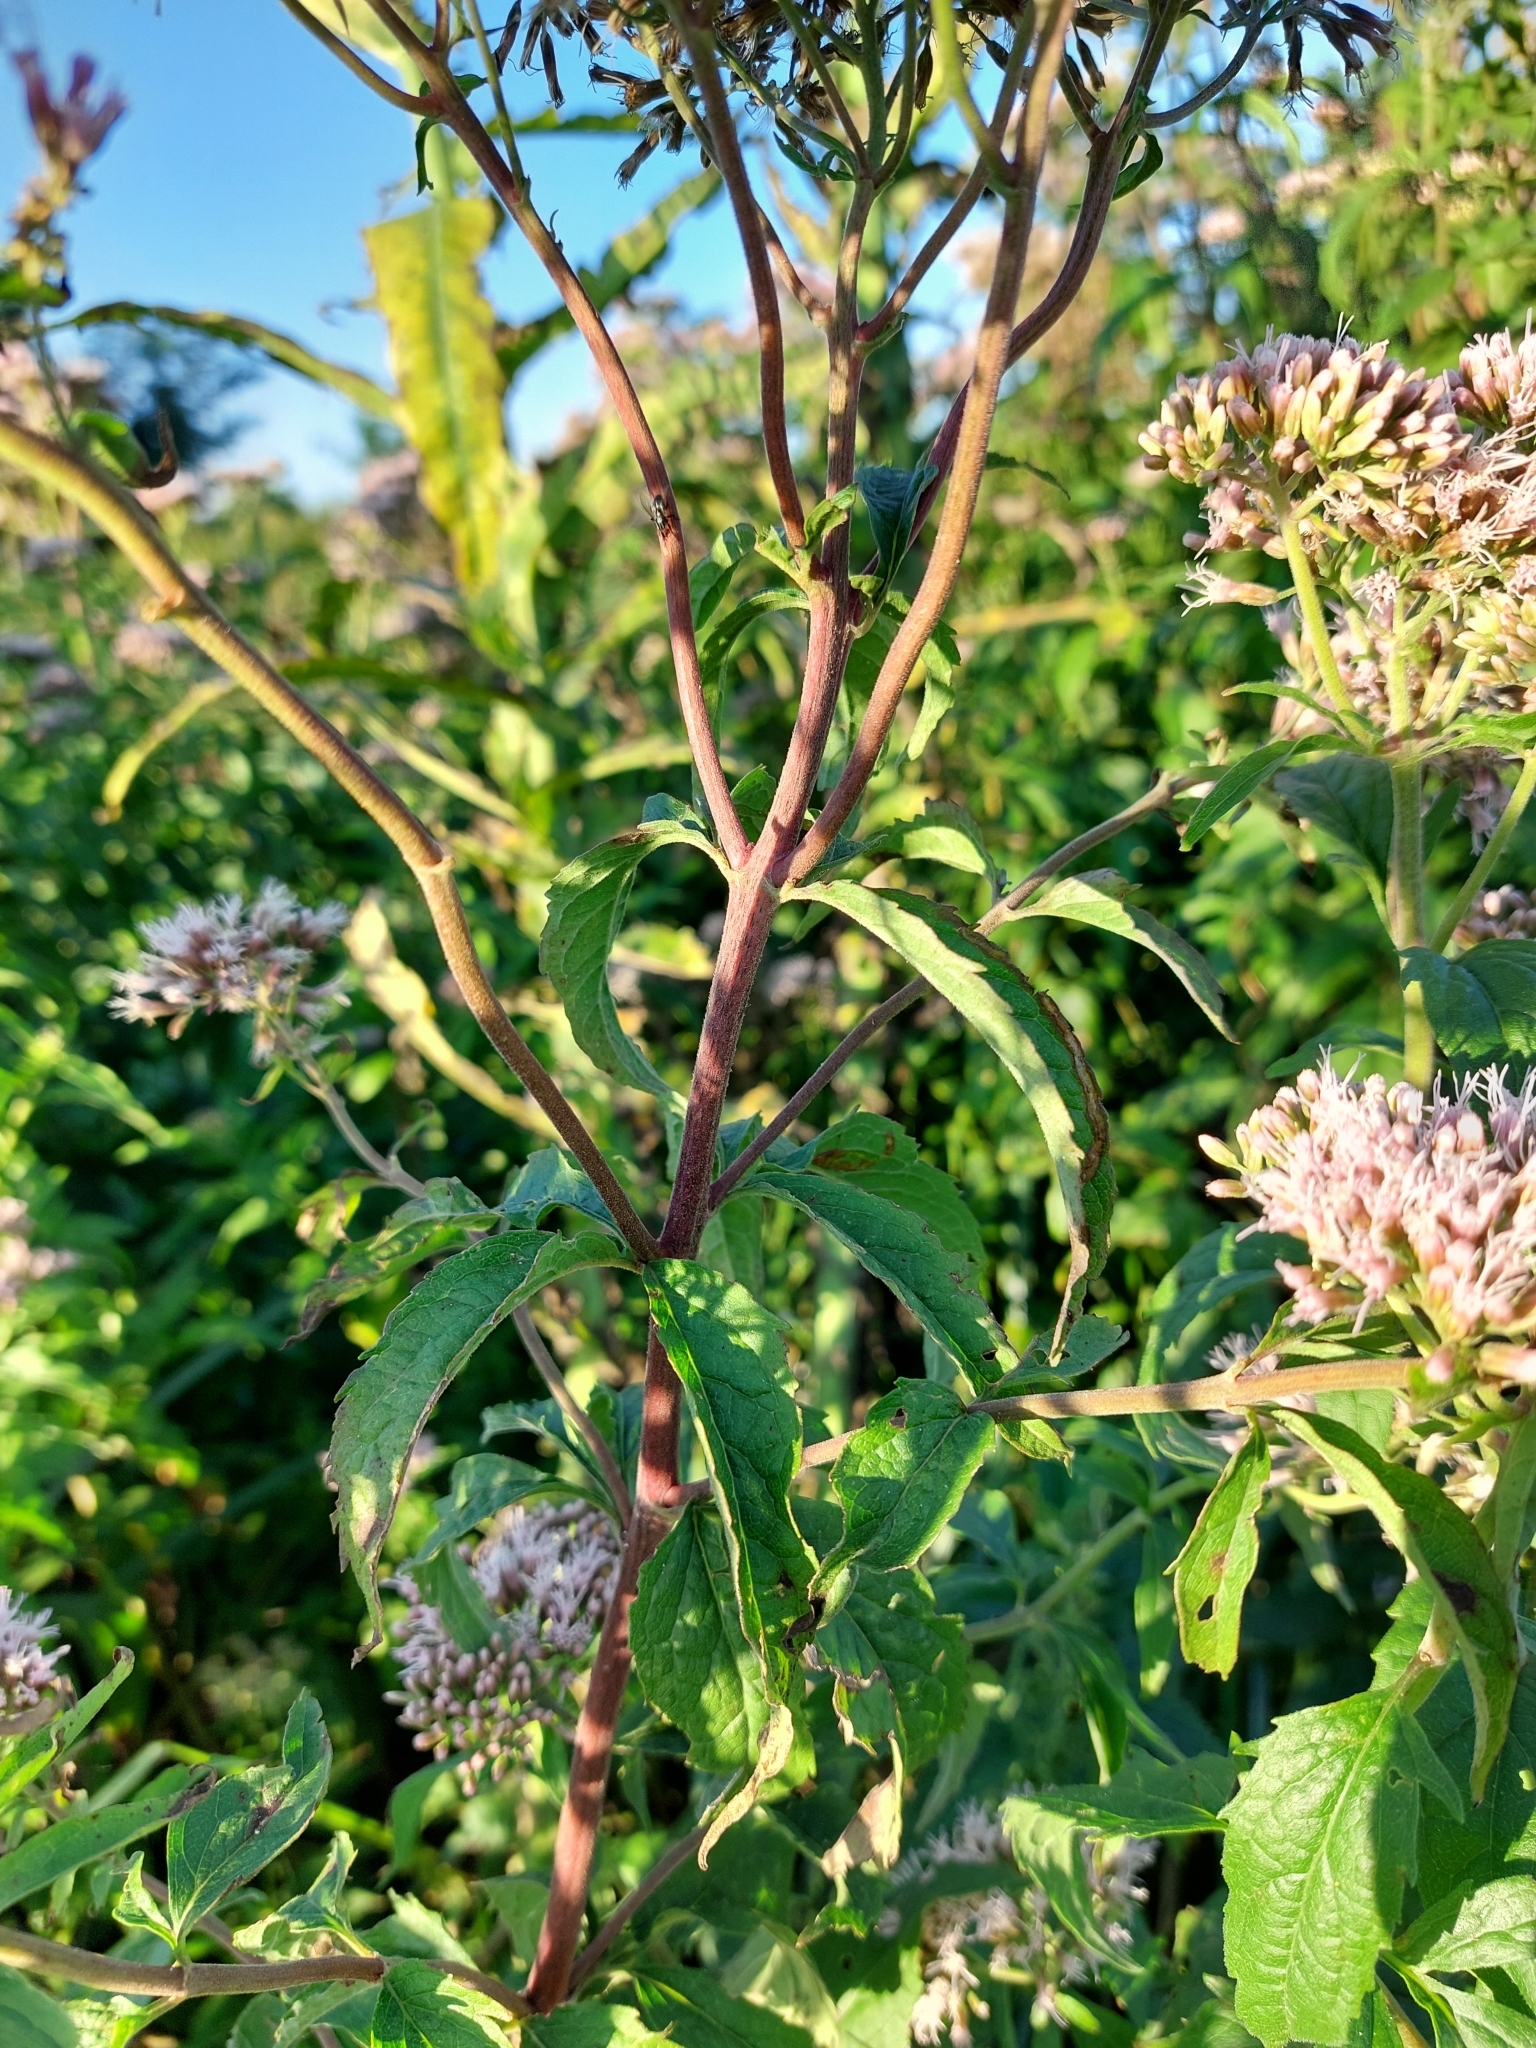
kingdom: Plantae
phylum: Tracheophyta
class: Magnoliopsida
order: Asterales
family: Asteraceae
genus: Eupatorium
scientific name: Eupatorium cannabinum
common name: Hemp-agrimony
